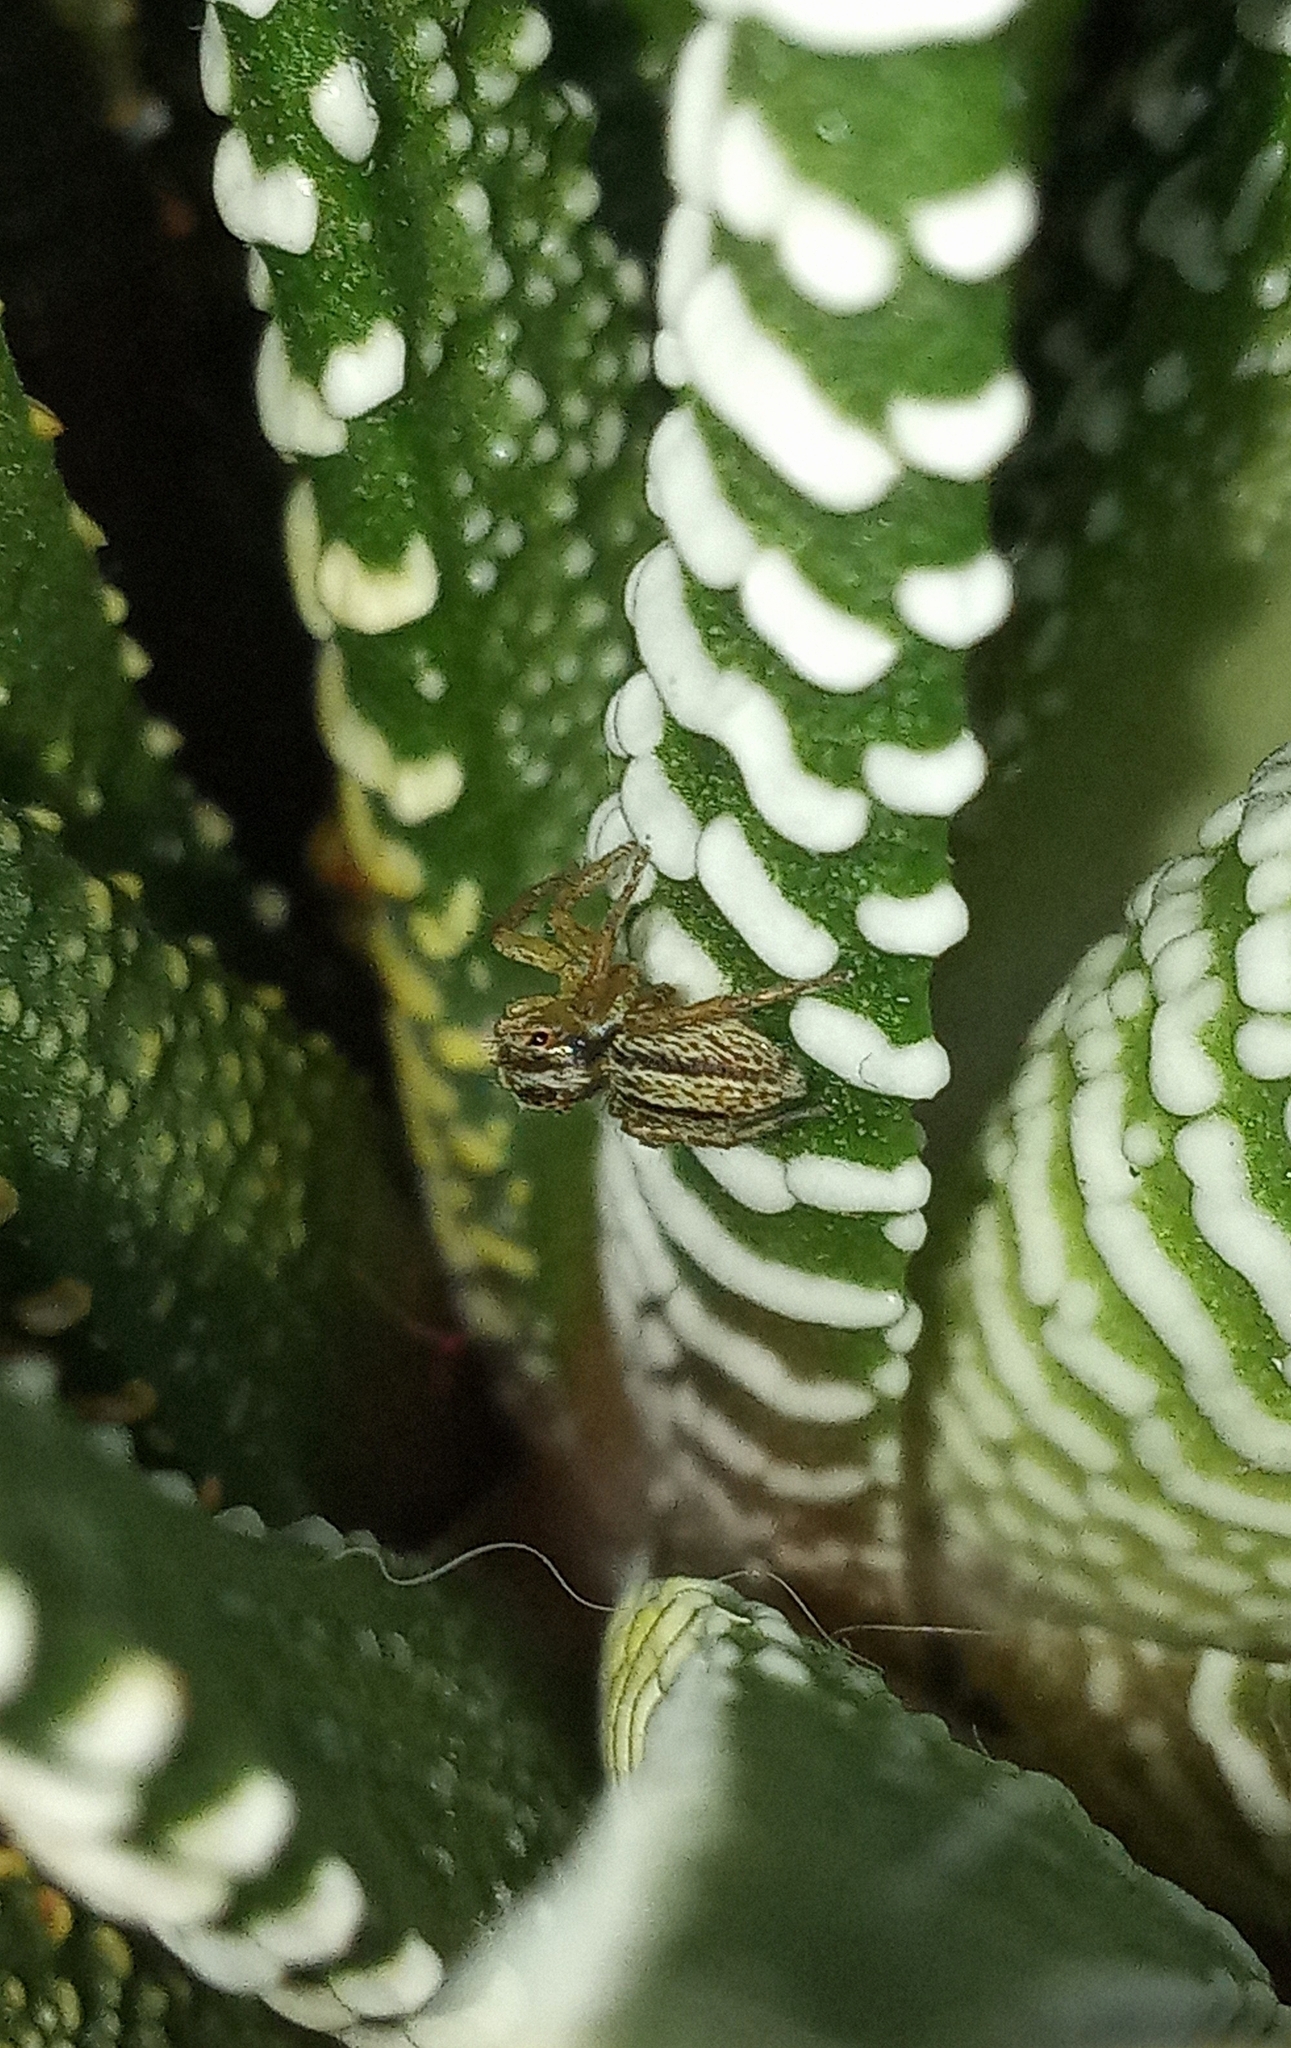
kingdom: Animalia
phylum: Arthropoda
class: Arachnida
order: Araneae
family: Salticidae
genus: Saphrys
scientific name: Saphrys saitiformis
